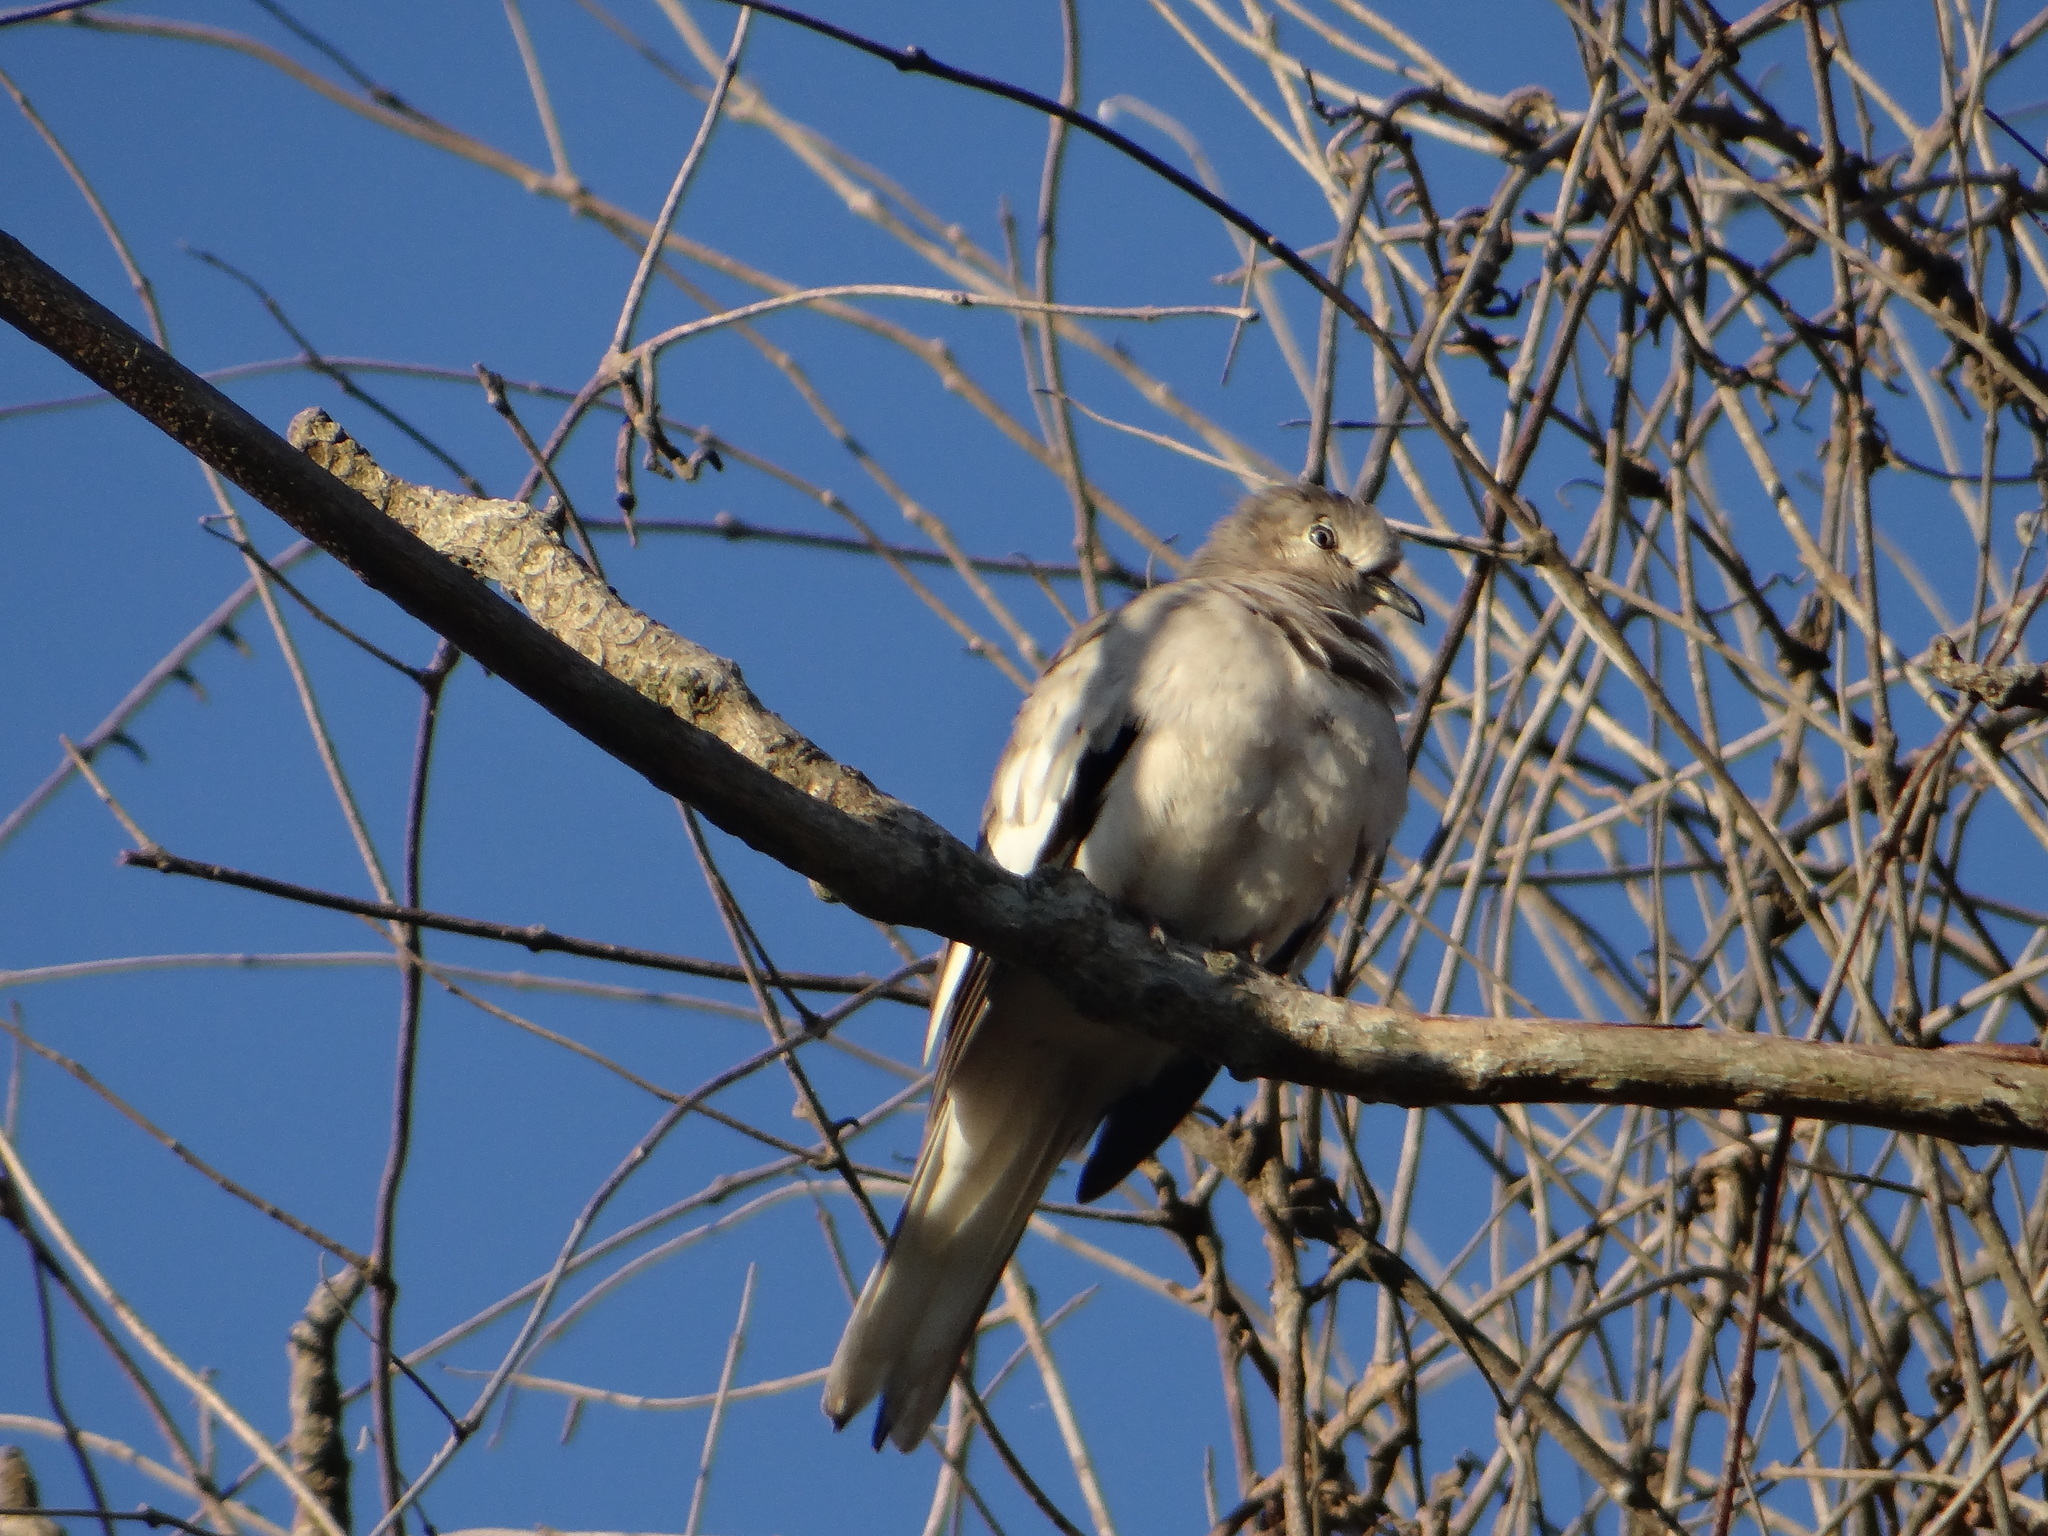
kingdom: Animalia
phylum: Chordata
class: Aves
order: Columbiformes
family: Columbidae
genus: Columbina
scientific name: Columbina picui
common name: Picui ground dove
